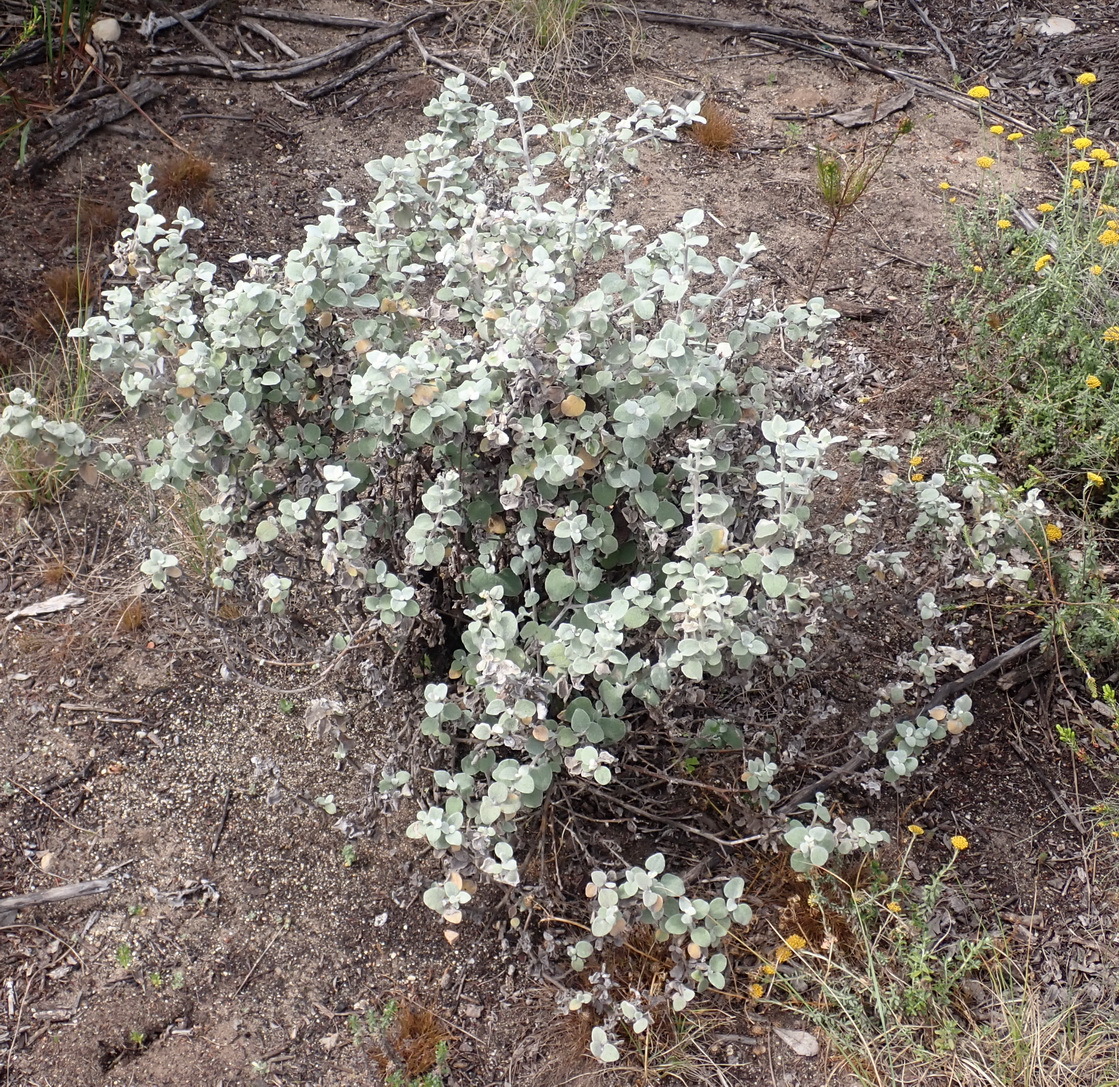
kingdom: Plantae
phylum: Tracheophyta
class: Magnoliopsida
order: Asterales
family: Asteraceae
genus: Helichrysum
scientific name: Helichrysum petiolare
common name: Licorice-plant
